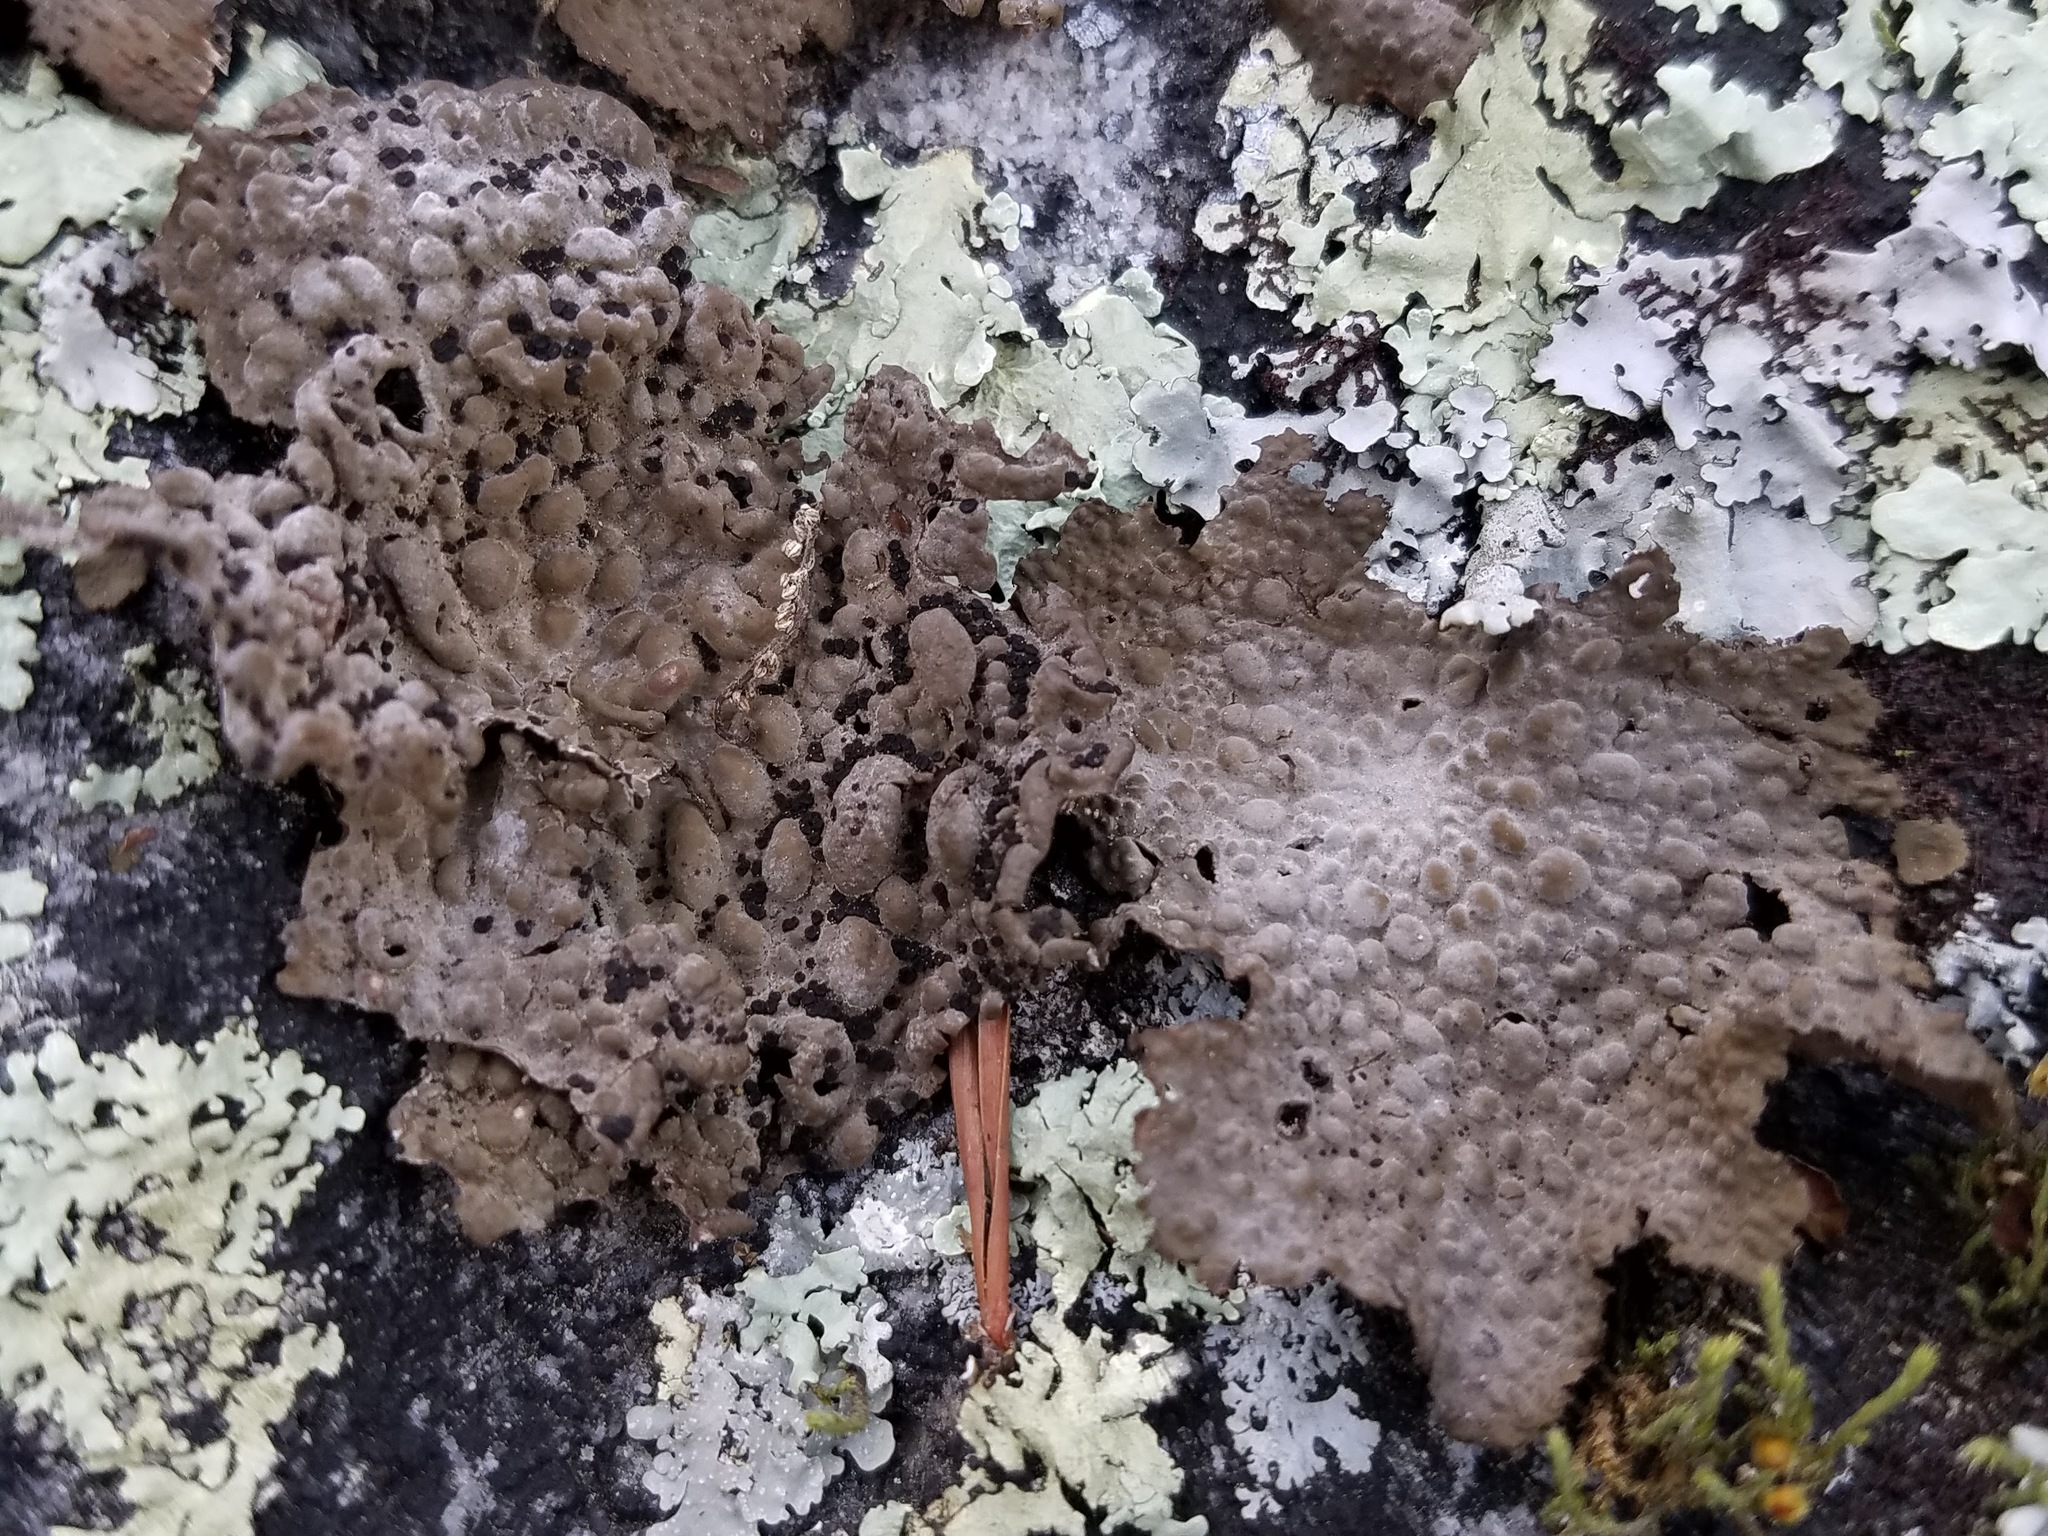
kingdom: Fungi
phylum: Ascomycota
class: Lecanoromycetes
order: Umbilicariales
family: Umbilicariaceae
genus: Lasallia
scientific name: Lasallia papulosa
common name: Common toadskin lichen
